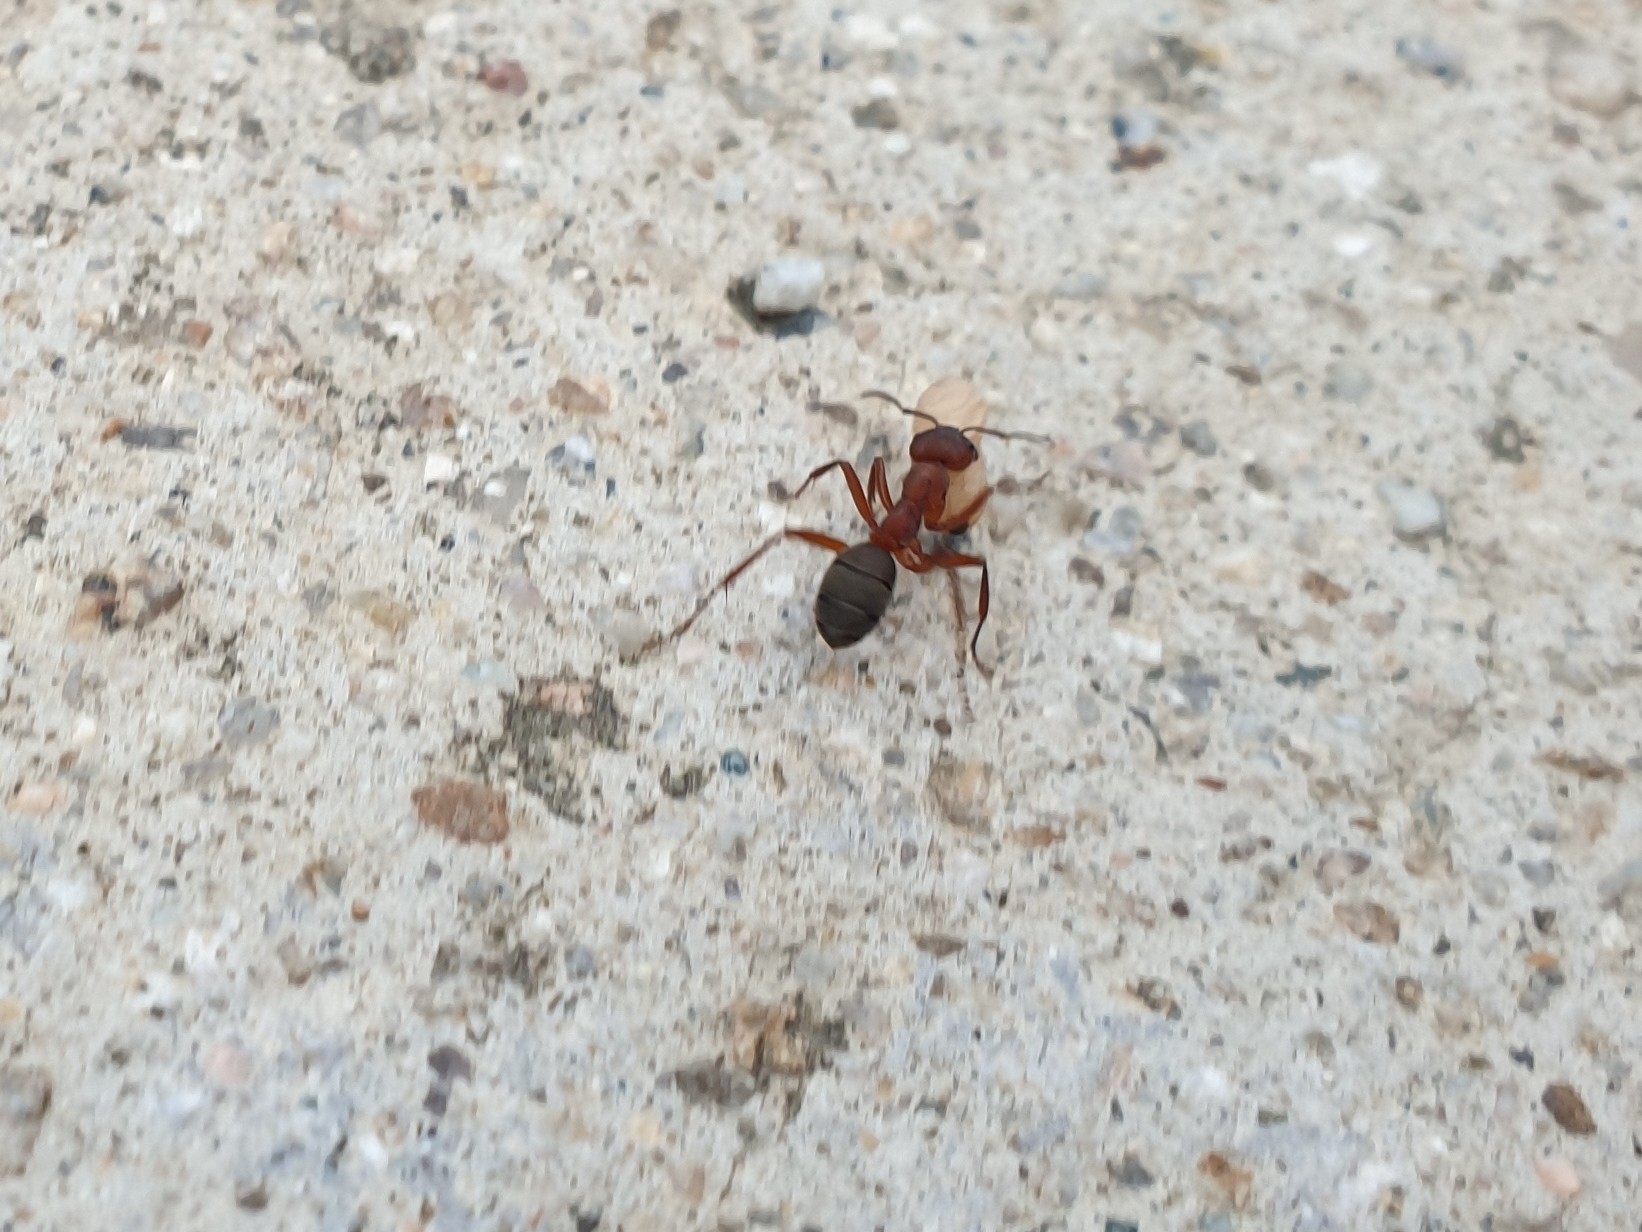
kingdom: Animalia
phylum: Arthropoda
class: Insecta
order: Hymenoptera
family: Formicidae
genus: Formica
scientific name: Formica sanguinea
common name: Blood-red ant
